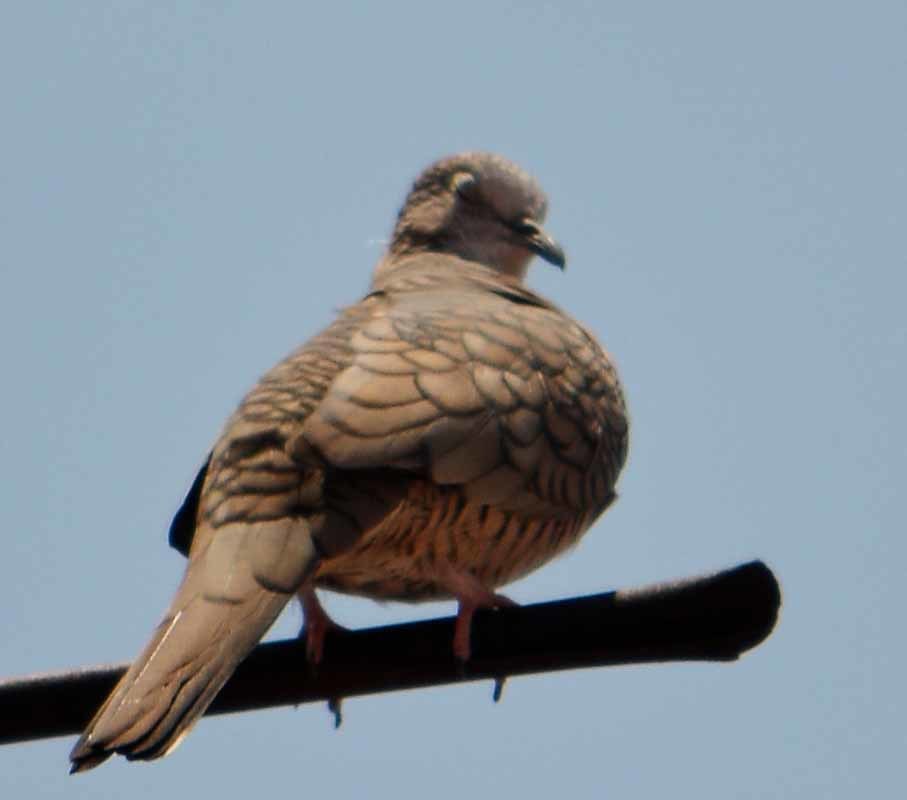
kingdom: Animalia
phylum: Chordata
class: Aves
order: Columbiformes
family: Columbidae
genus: Columbina
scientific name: Columbina inca
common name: Inca dove
